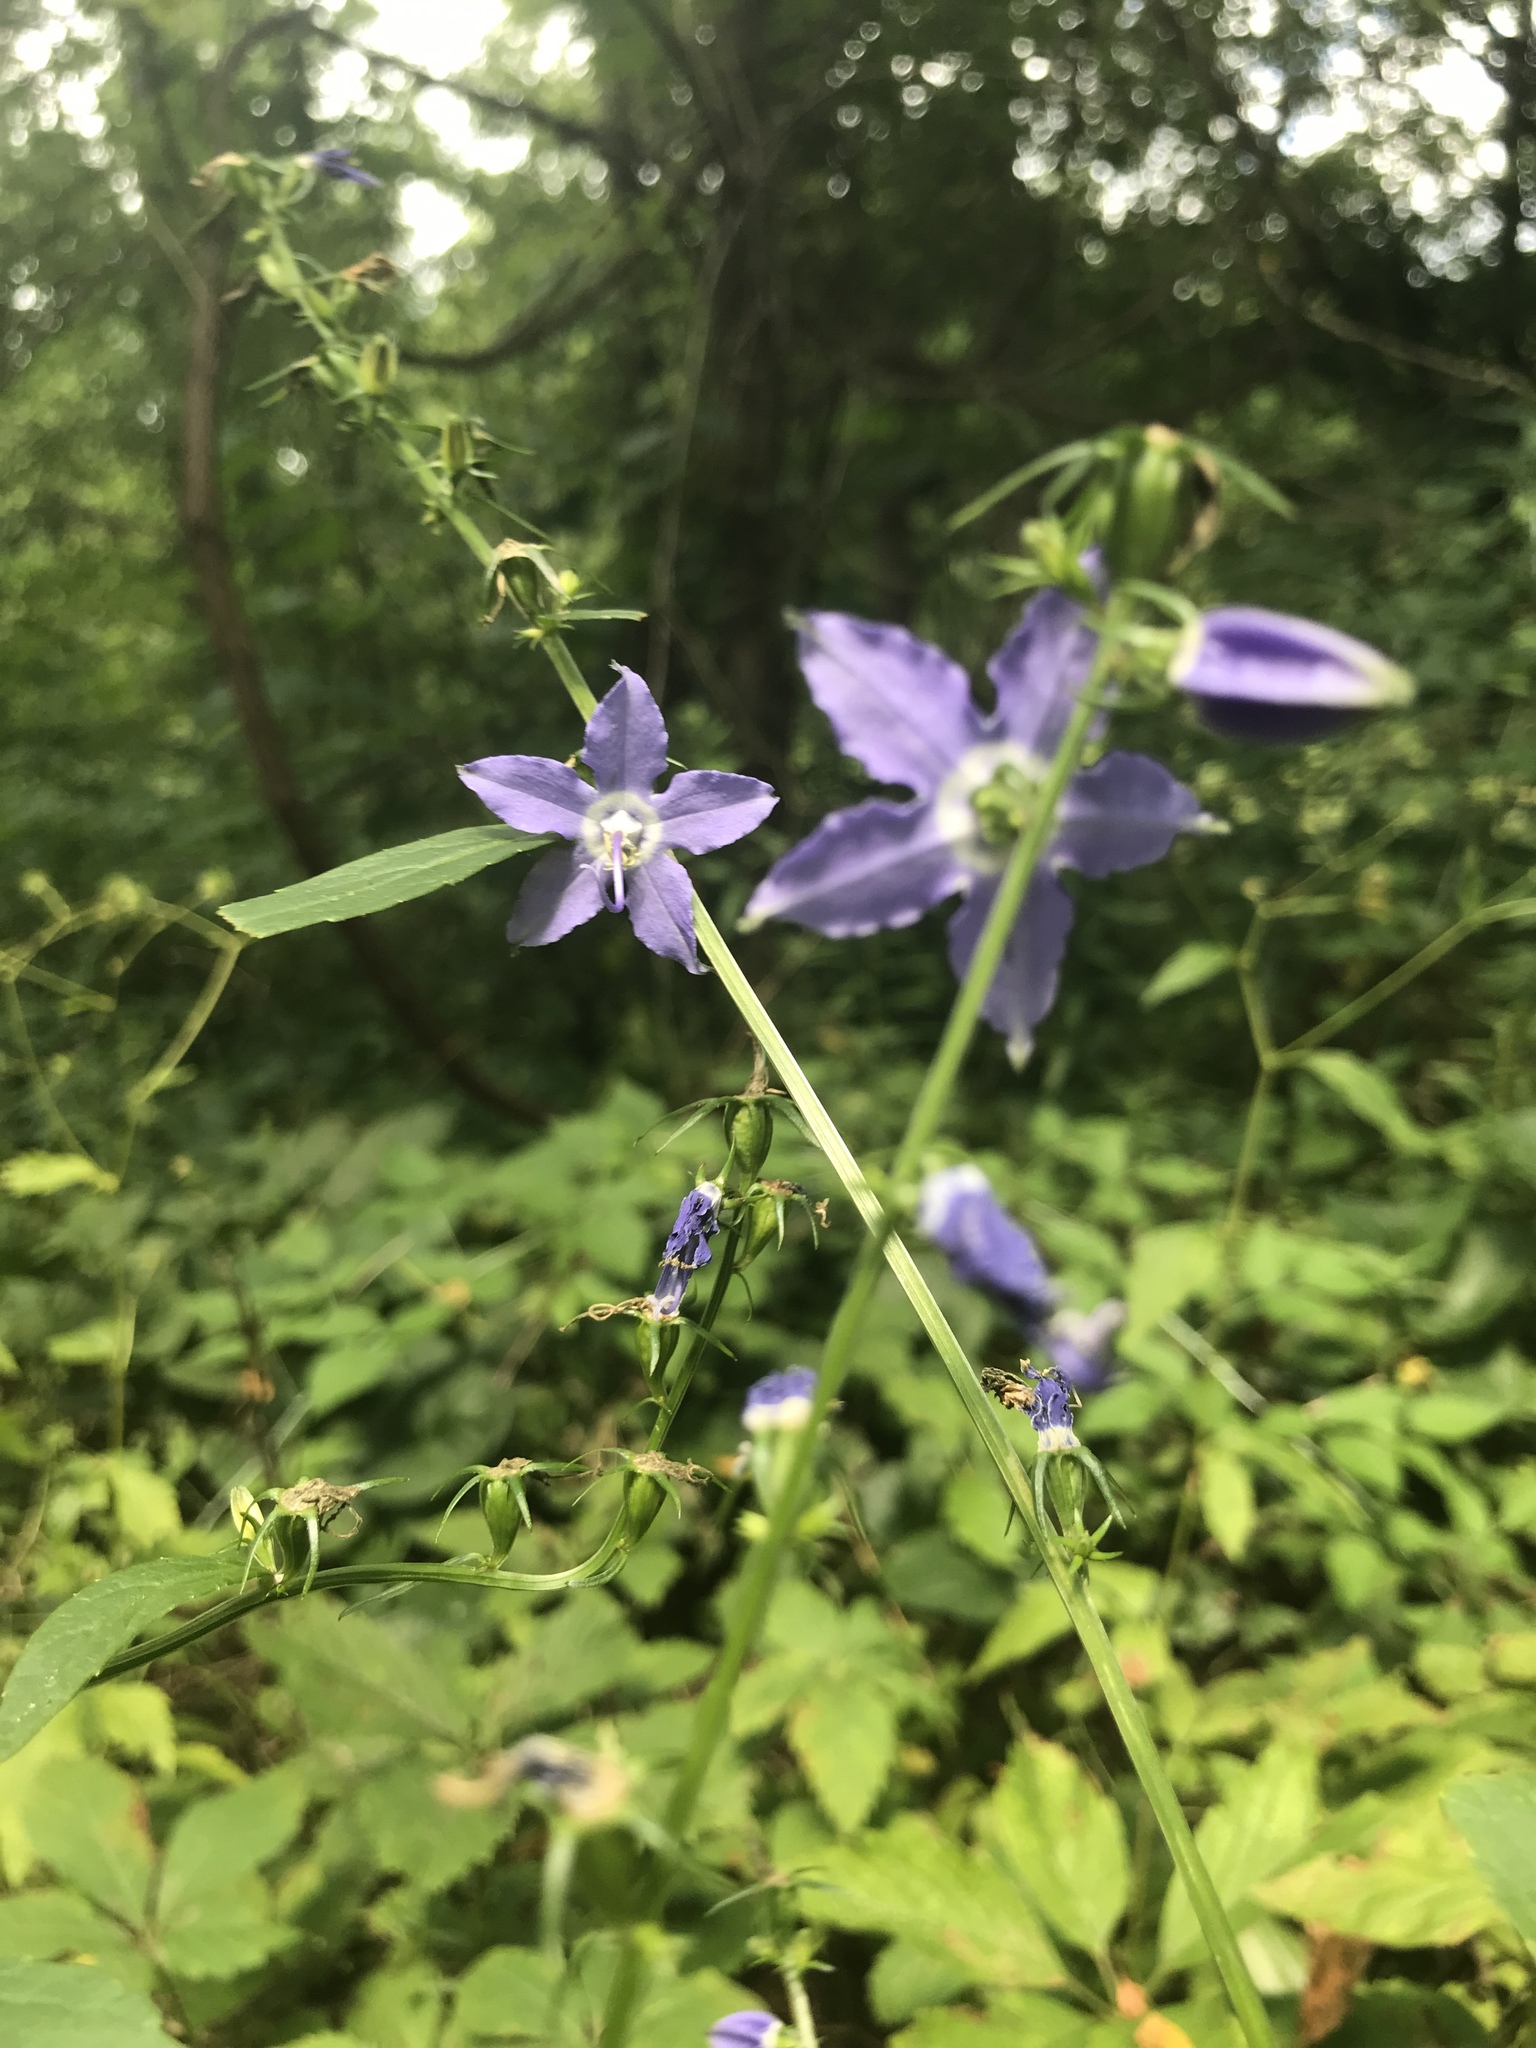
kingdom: Plantae
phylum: Tracheophyta
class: Magnoliopsida
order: Asterales
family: Campanulaceae
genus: Campanulastrum
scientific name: Campanulastrum americanum
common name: American bellflower
